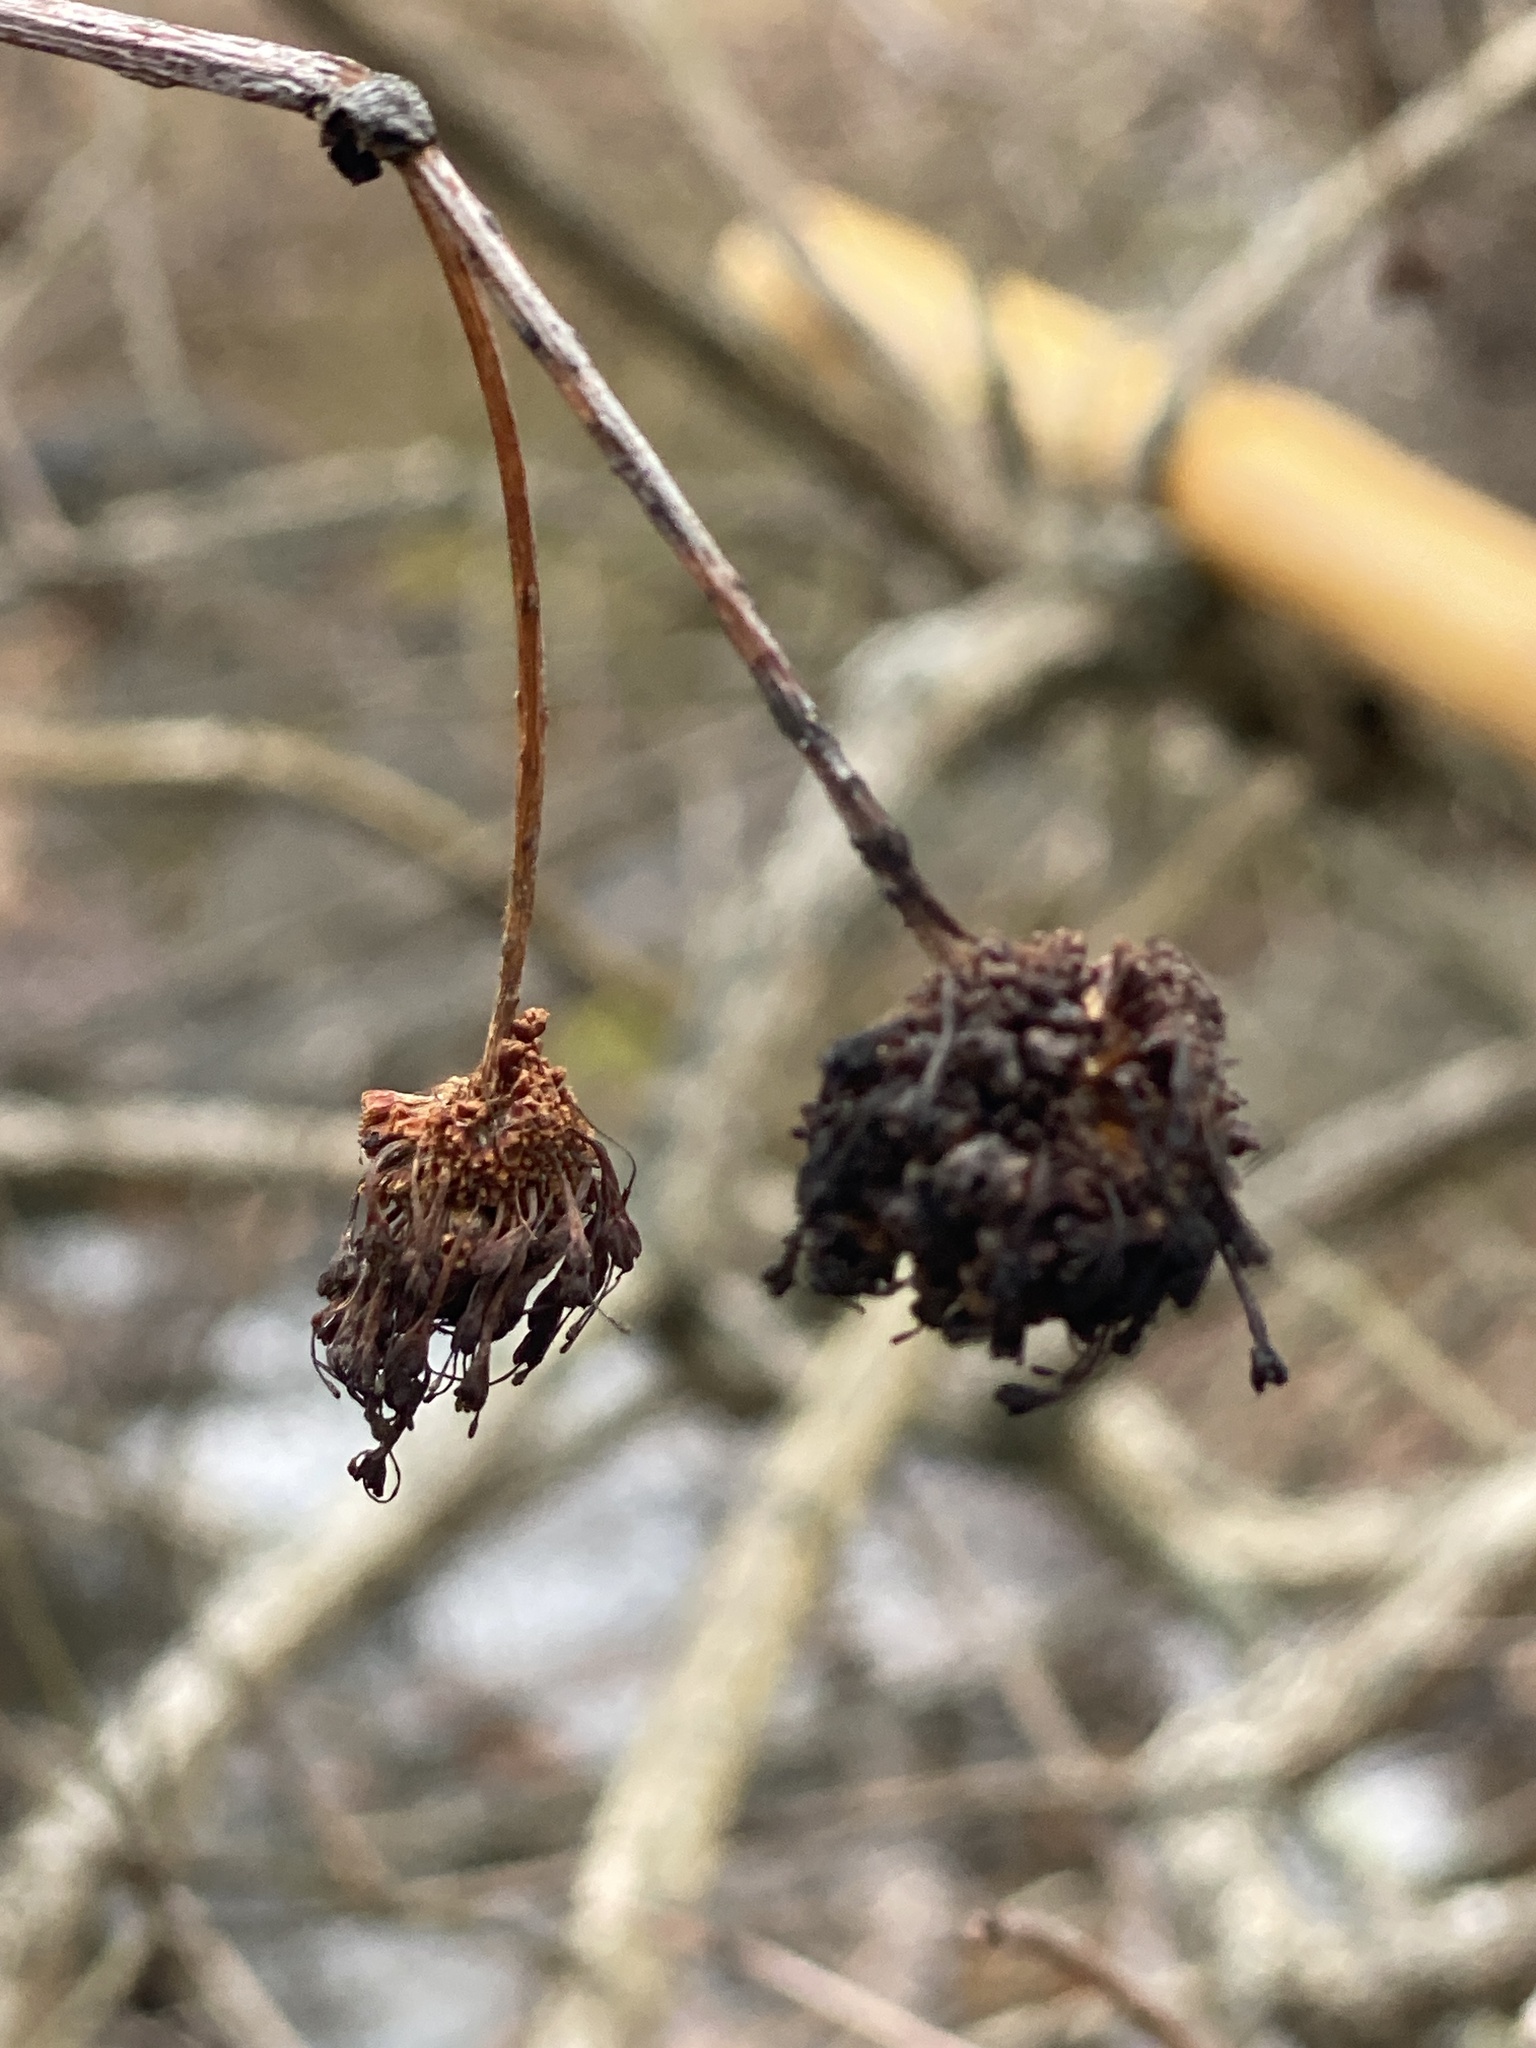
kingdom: Plantae
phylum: Tracheophyta
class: Magnoliopsida
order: Gentianales
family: Rubiaceae
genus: Cephalanthus
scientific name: Cephalanthus occidentalis
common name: Button-willow
